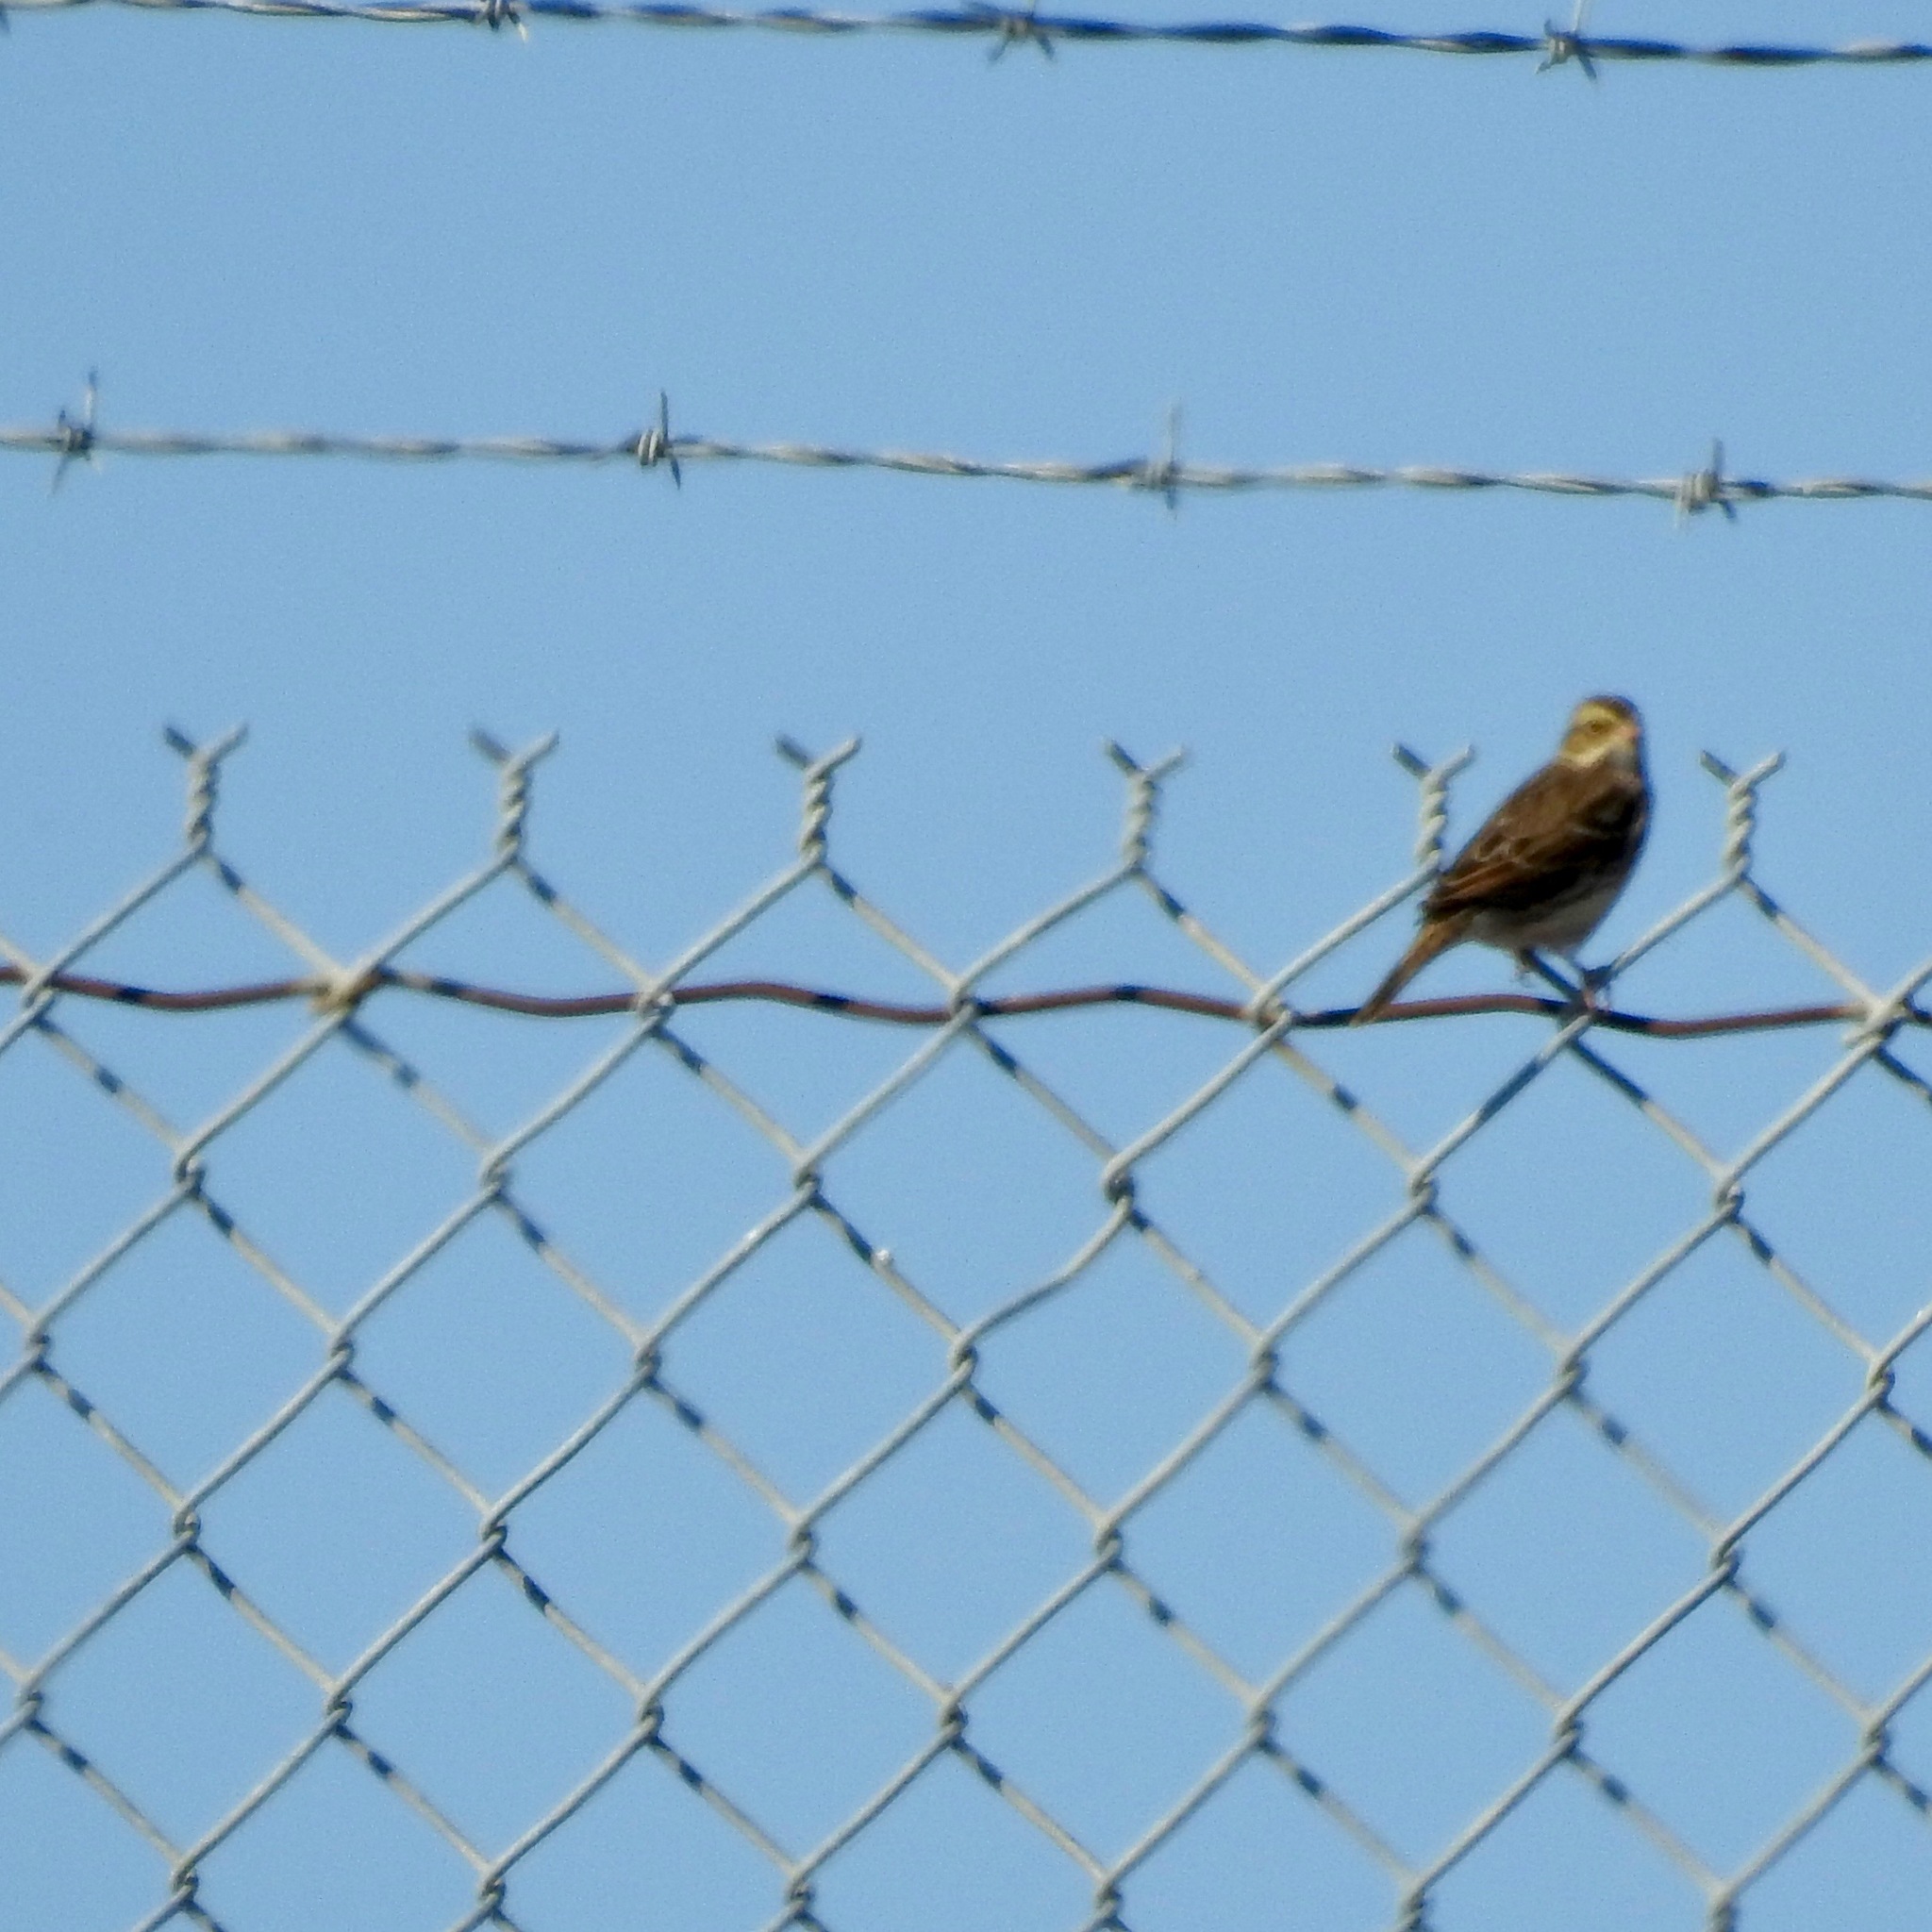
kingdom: Animalia
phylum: Chordata
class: Aves
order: Passeriformes
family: Passerellidae
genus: Passerculus
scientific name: Passerculus sandwichensis
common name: Savannah sparrow
